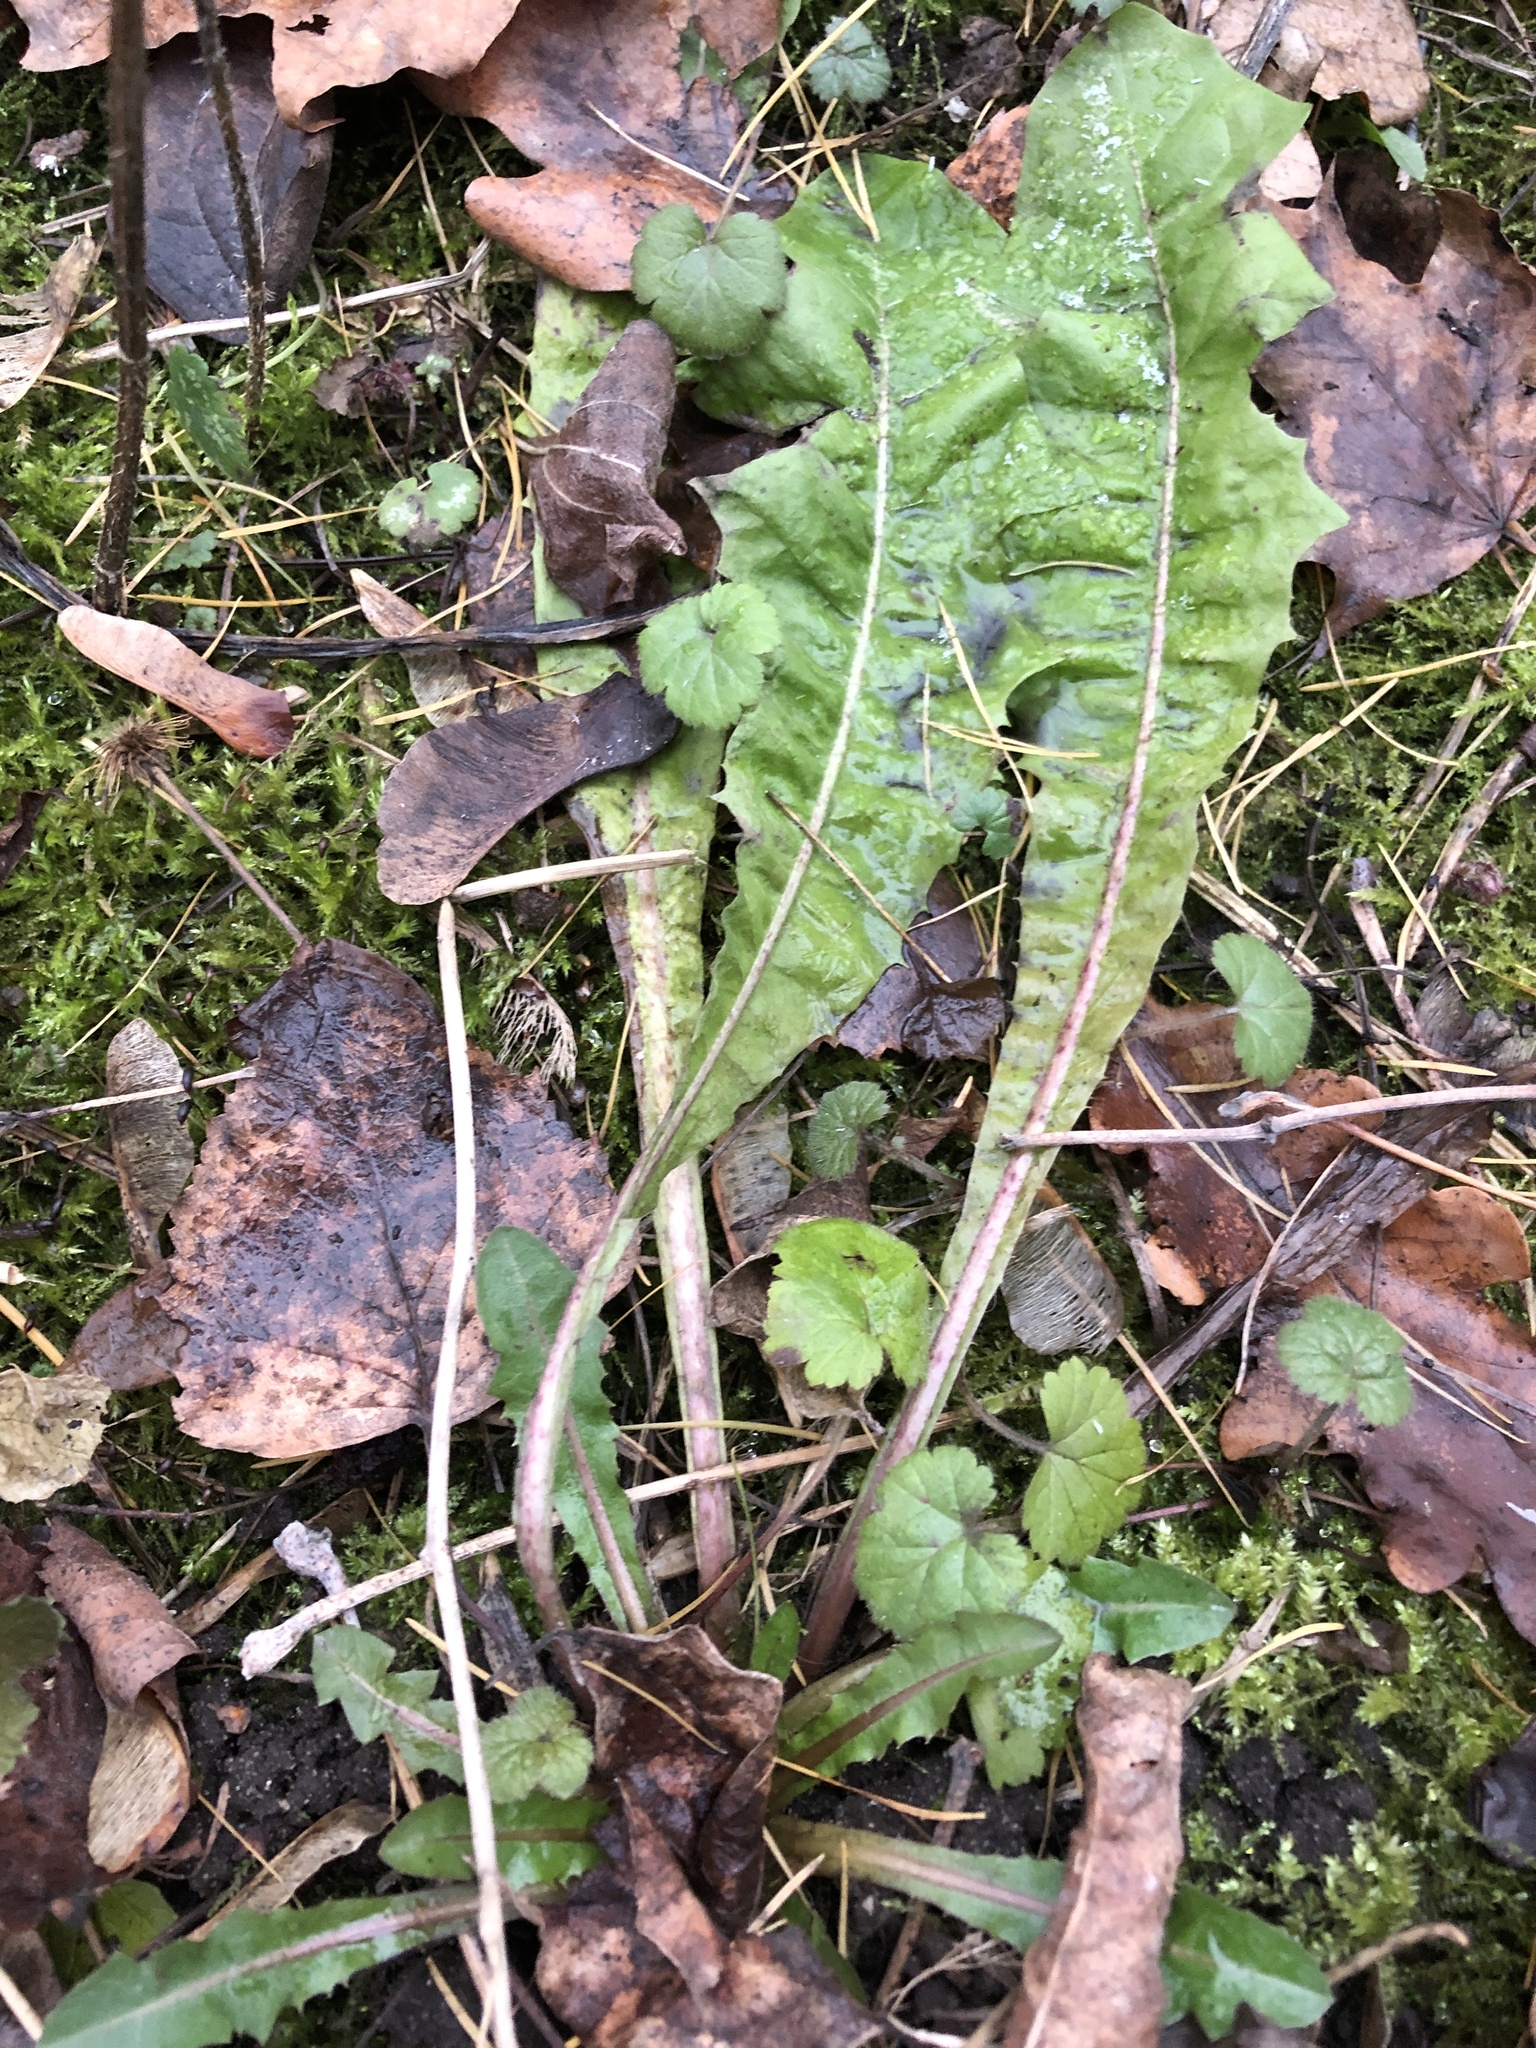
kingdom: Plantae
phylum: Tracheophyta
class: Magnoliopsida
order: Asterales
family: Asteraceae
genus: Taraxacum
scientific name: Taraxacum officinale
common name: Common dandelion
